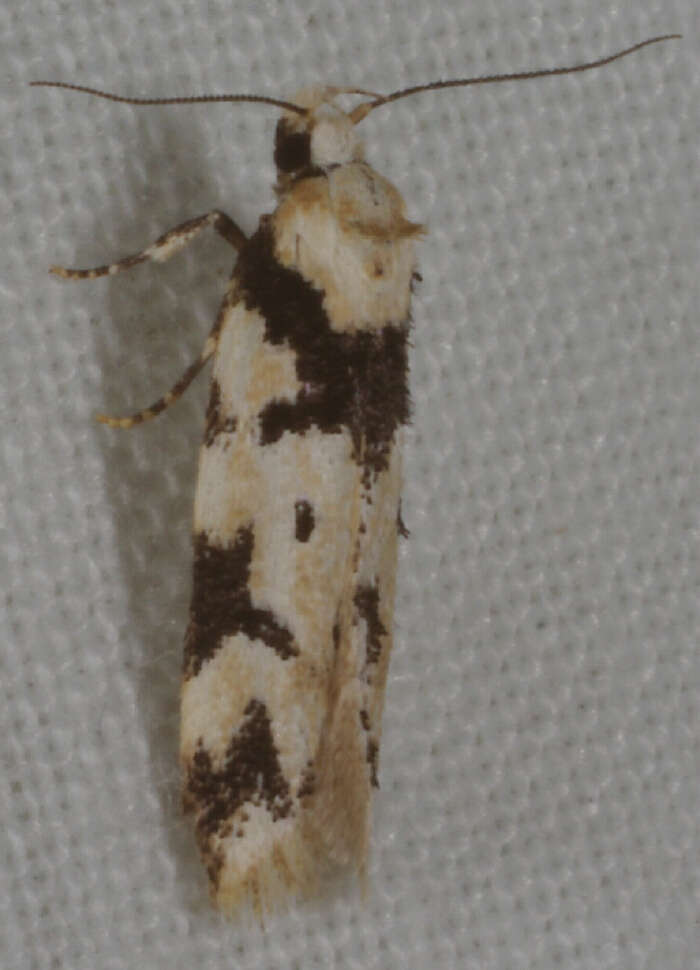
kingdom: Animalia
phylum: Arthropoda
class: Insecta
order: Lepidoptera
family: Oecophoridae
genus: Barea
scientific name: Barea discincta
